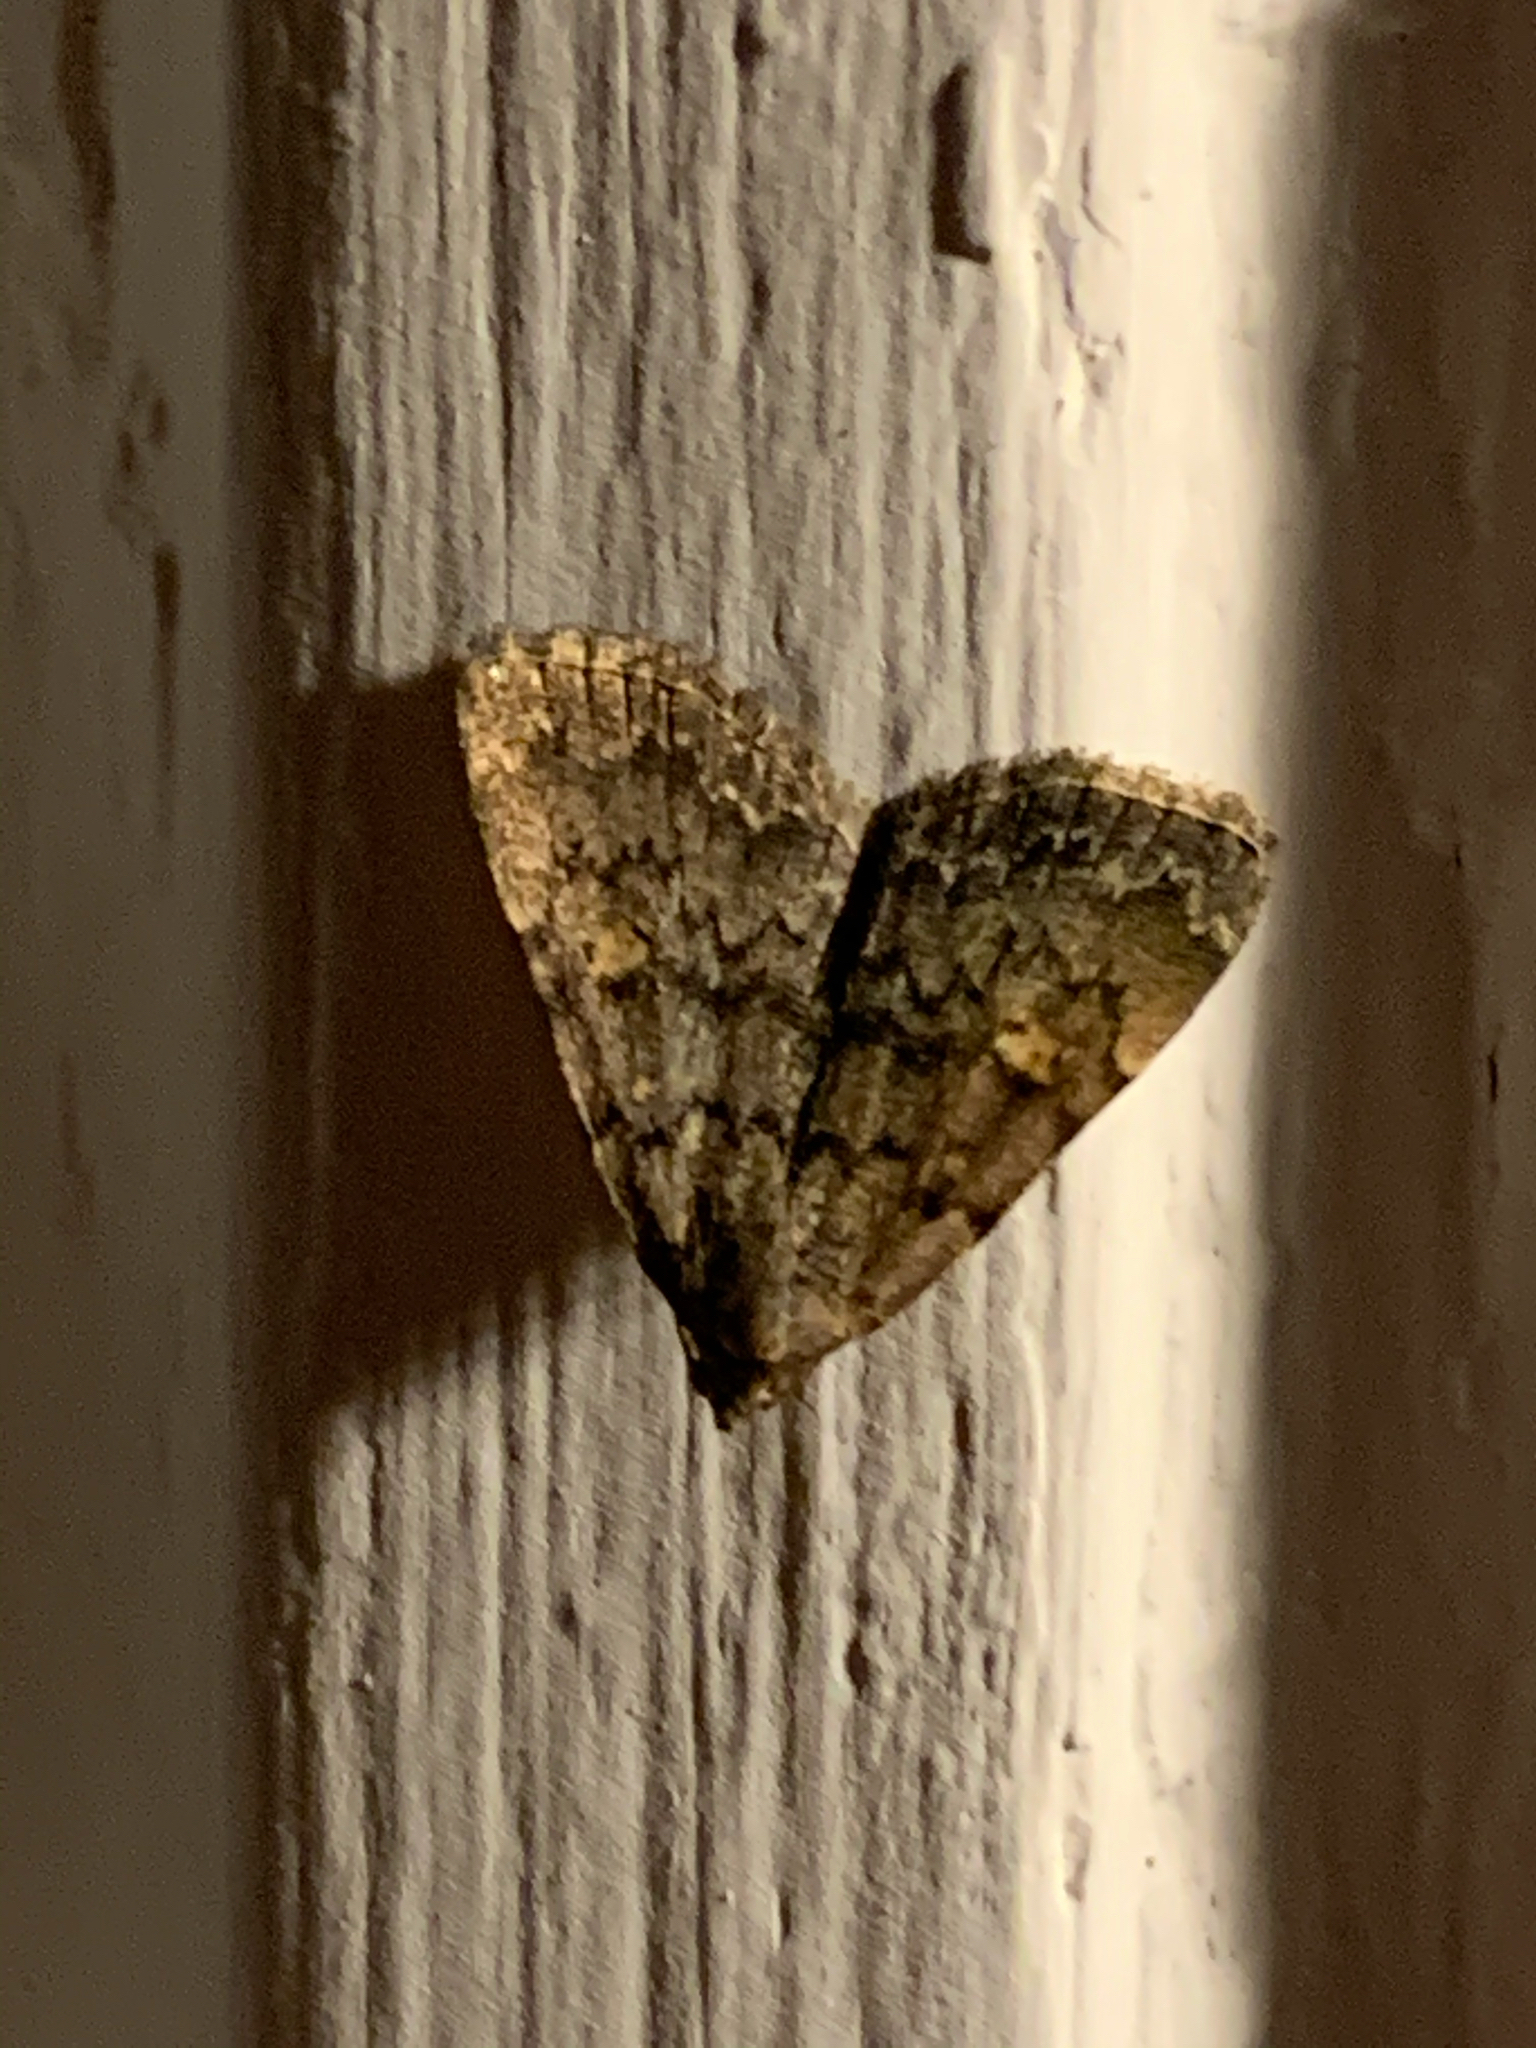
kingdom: Animalia
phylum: Arthropoda
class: Insecta
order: Lepidoptera
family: Erebidae
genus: Idia
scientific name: Idia aemula
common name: Common idia moth
